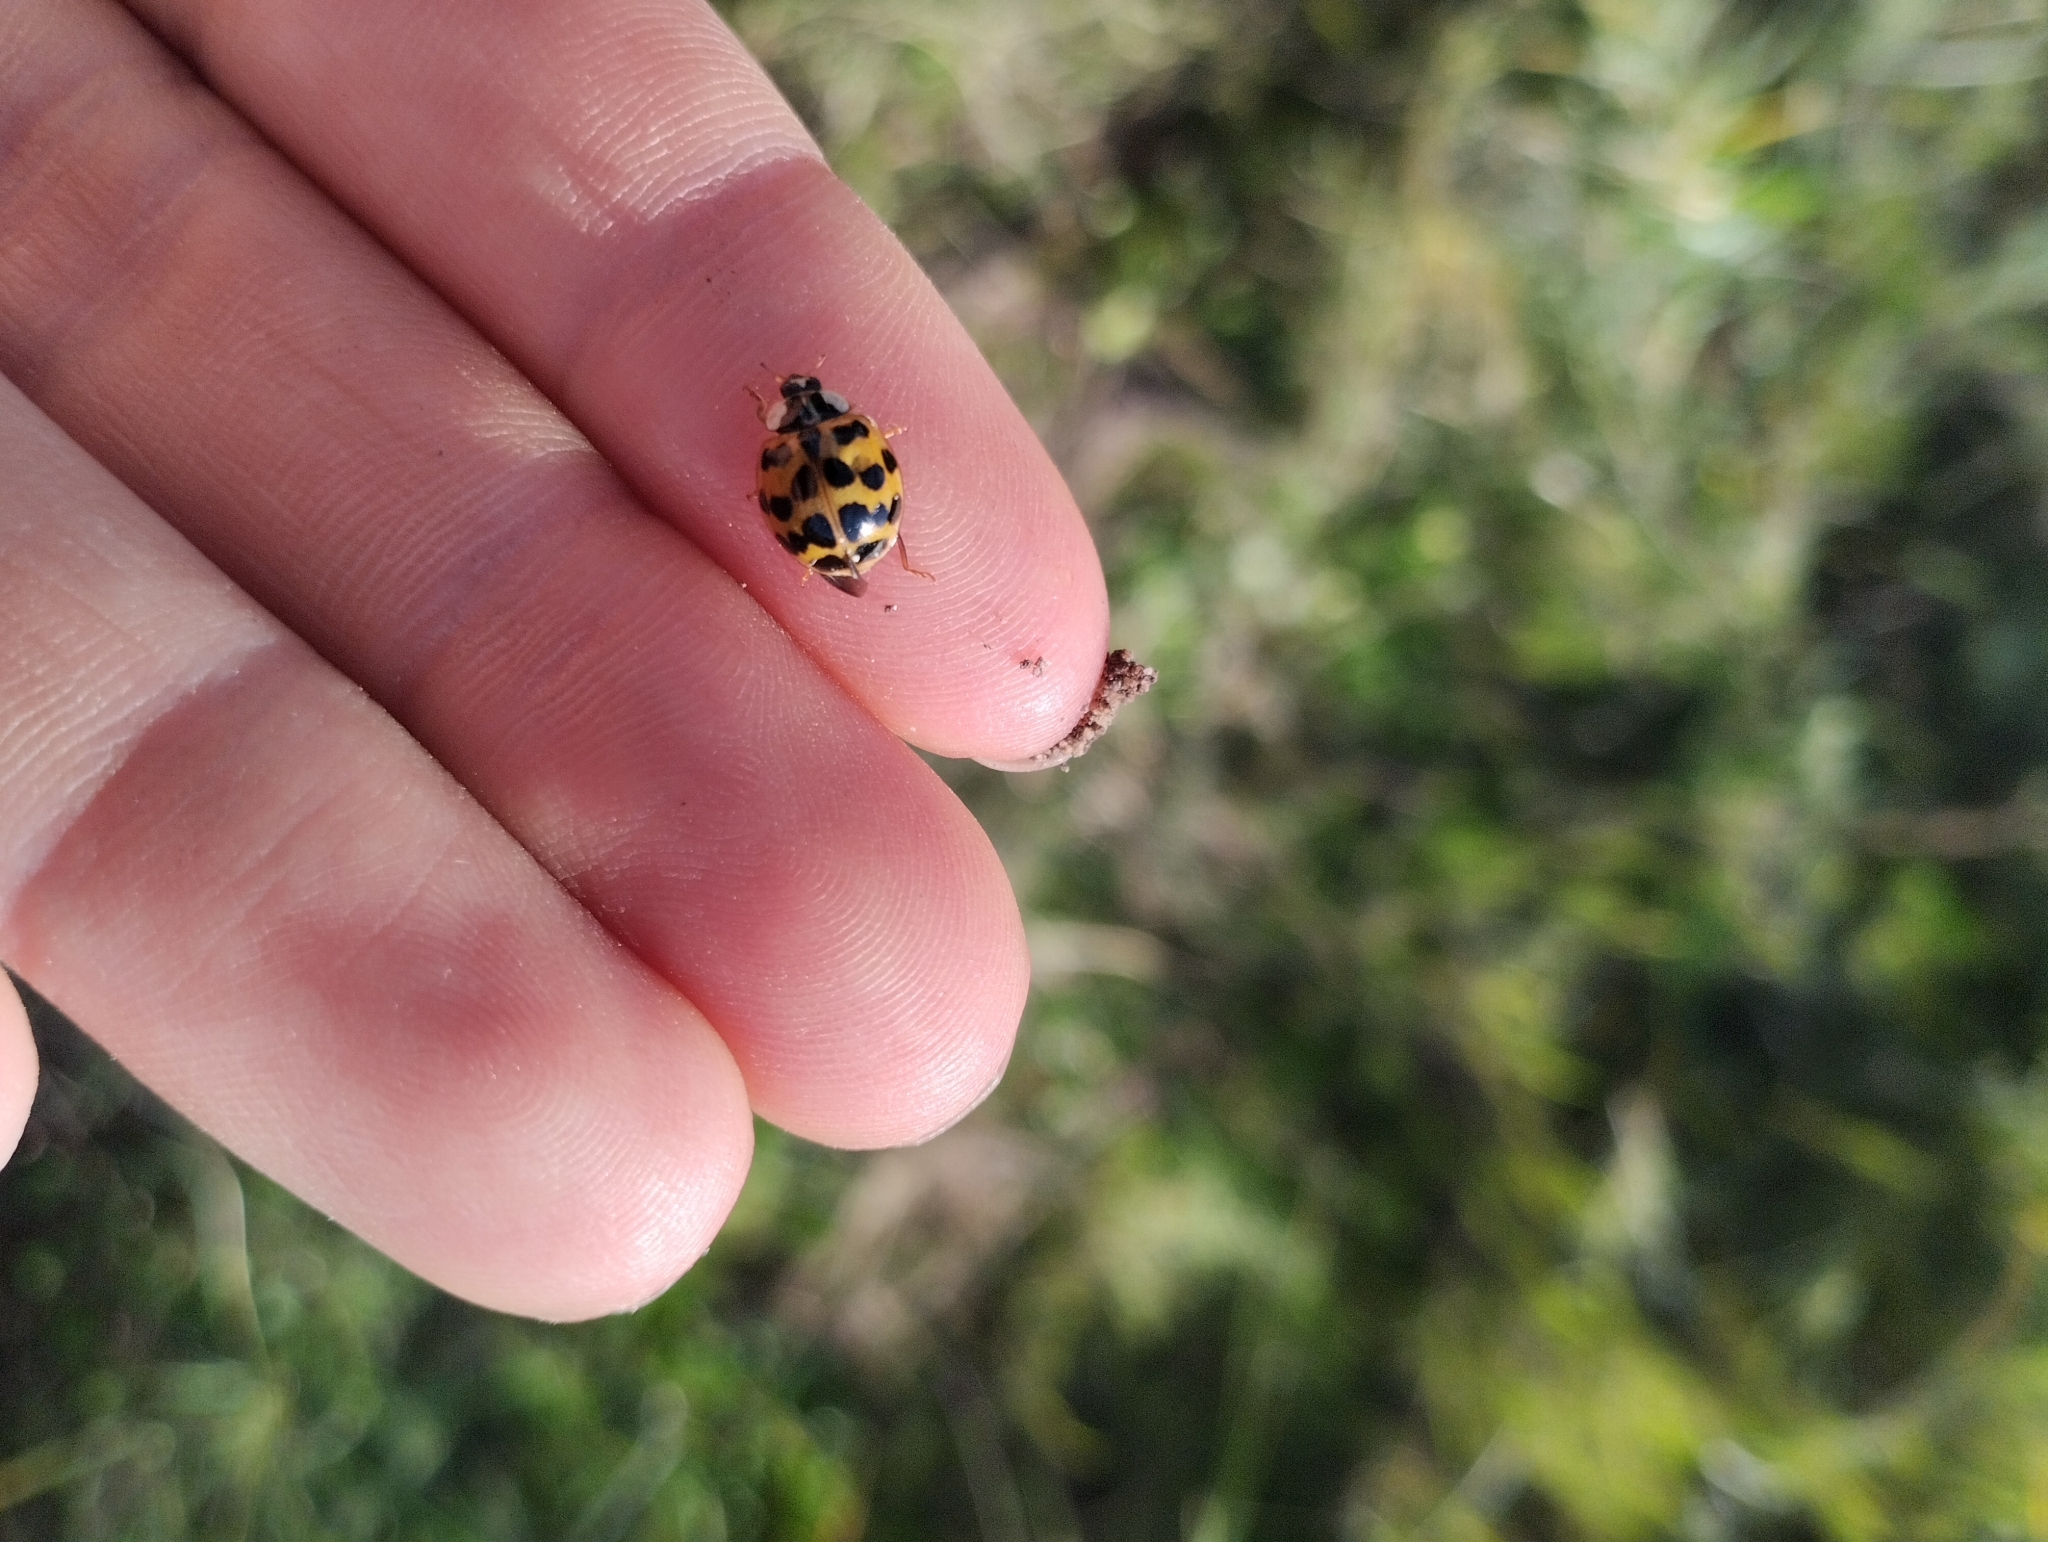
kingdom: Animalia
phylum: Arthropoda
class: Insecta
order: Coleoptera
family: Coccinellidae
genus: Harmonia
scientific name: Harmonia axyridis
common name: Harlequin ladybird
